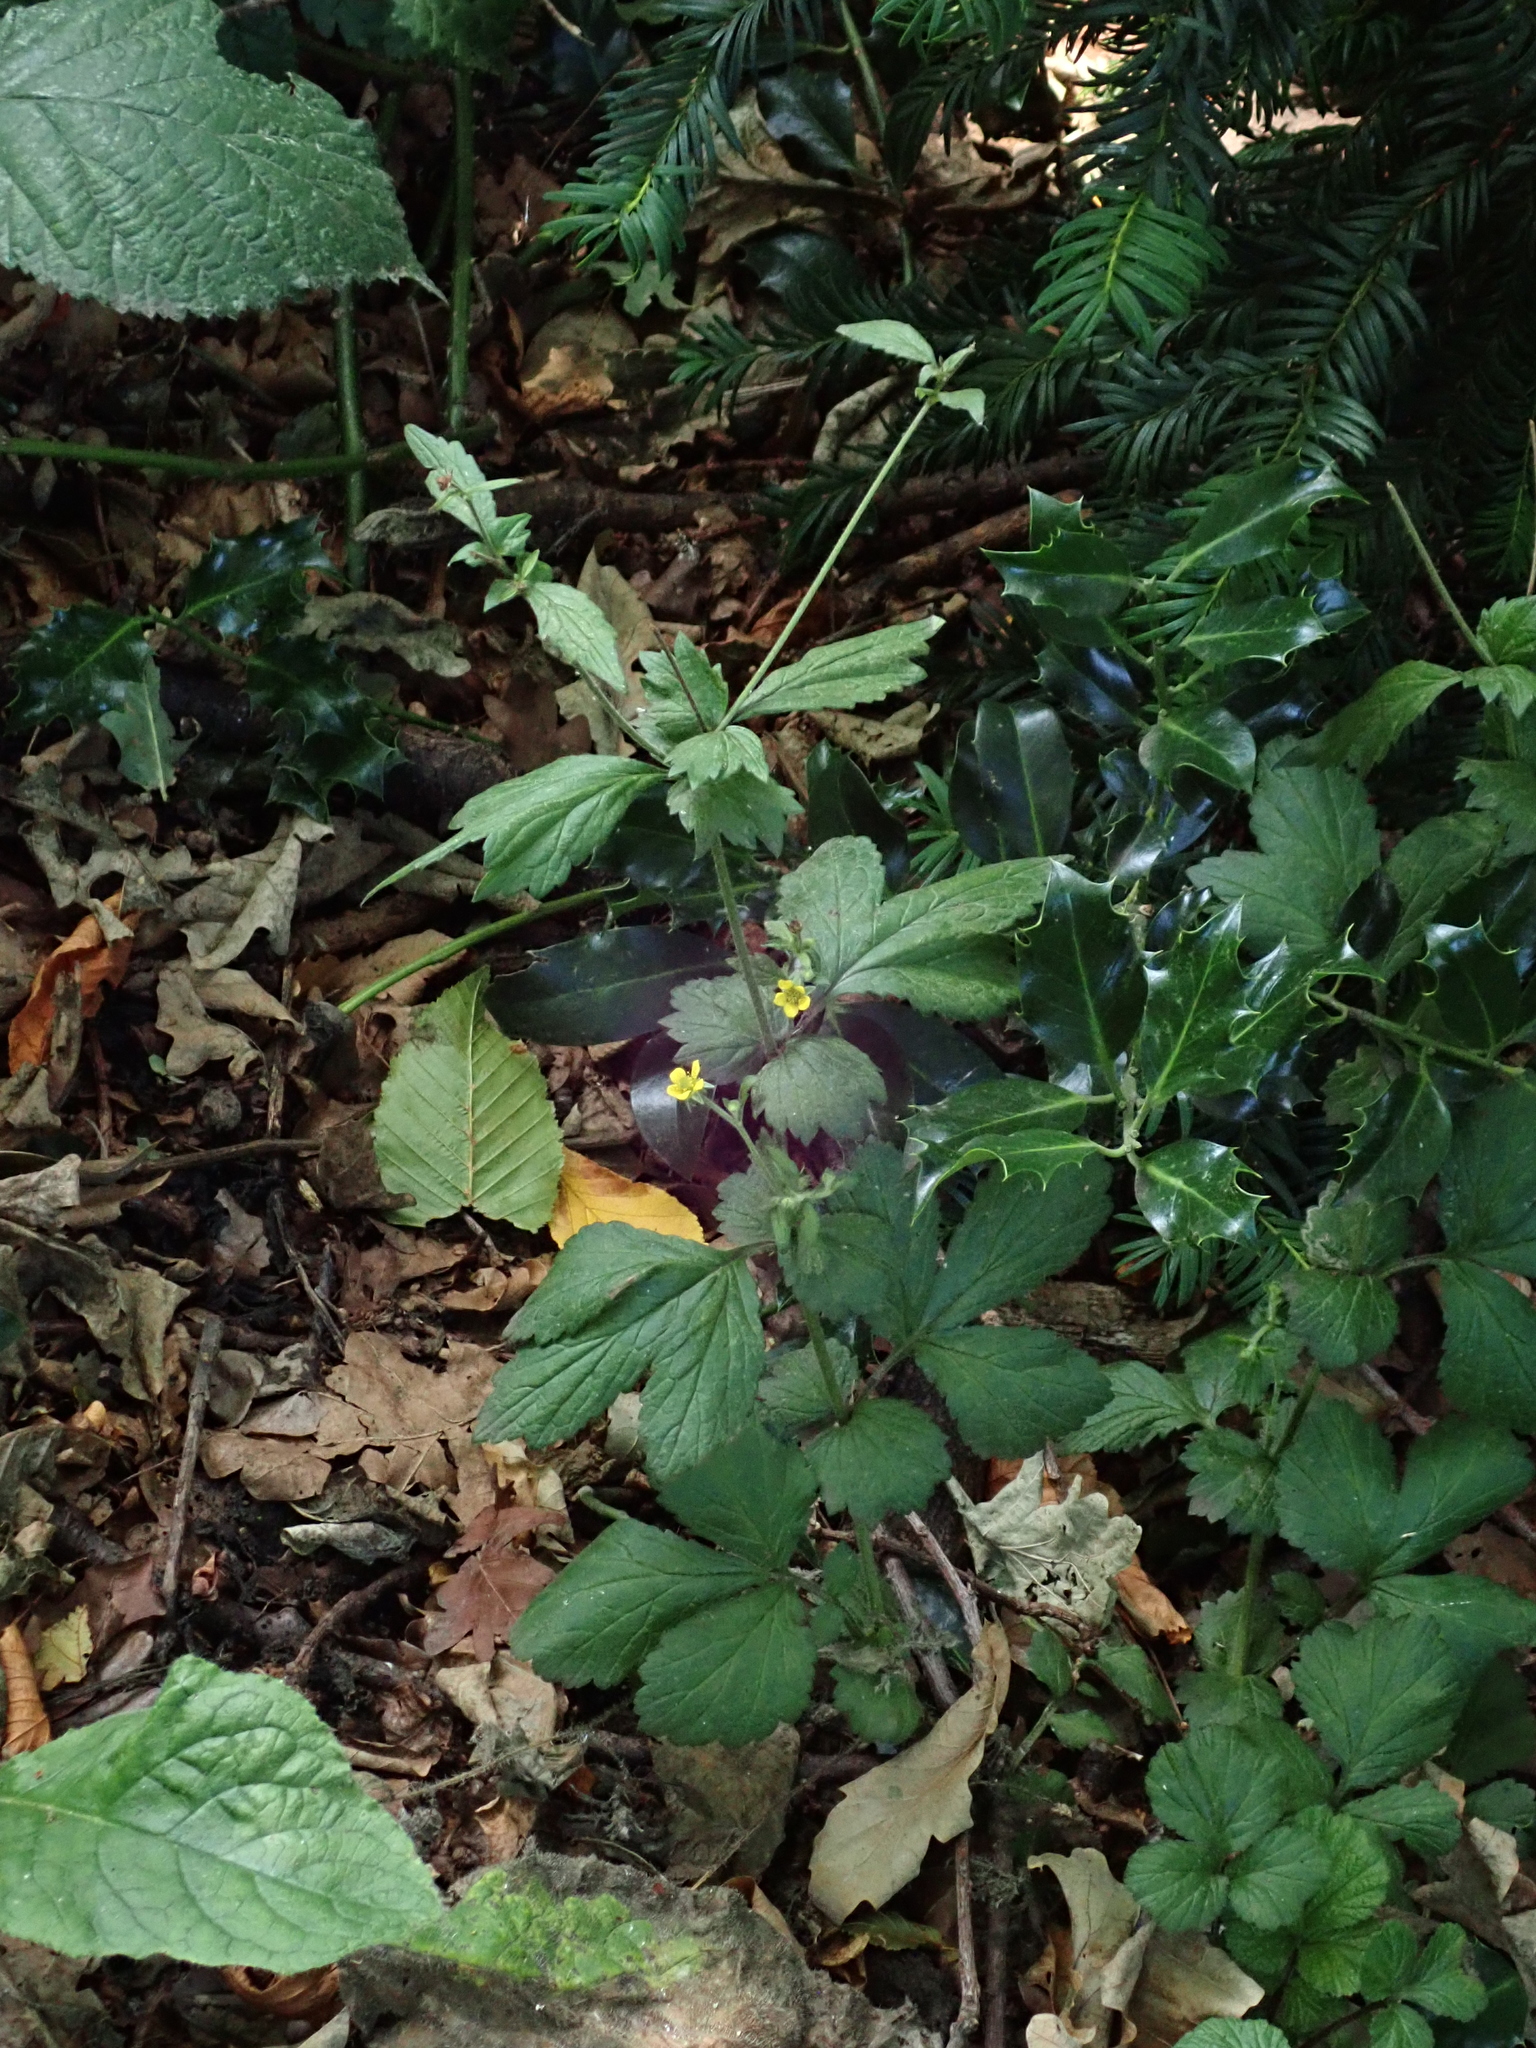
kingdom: Plantae
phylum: Tracheophyta
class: Magnoliopsida
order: Rosales
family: Rosaceae
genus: Geum
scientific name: Geum urbanum
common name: Wood avens
